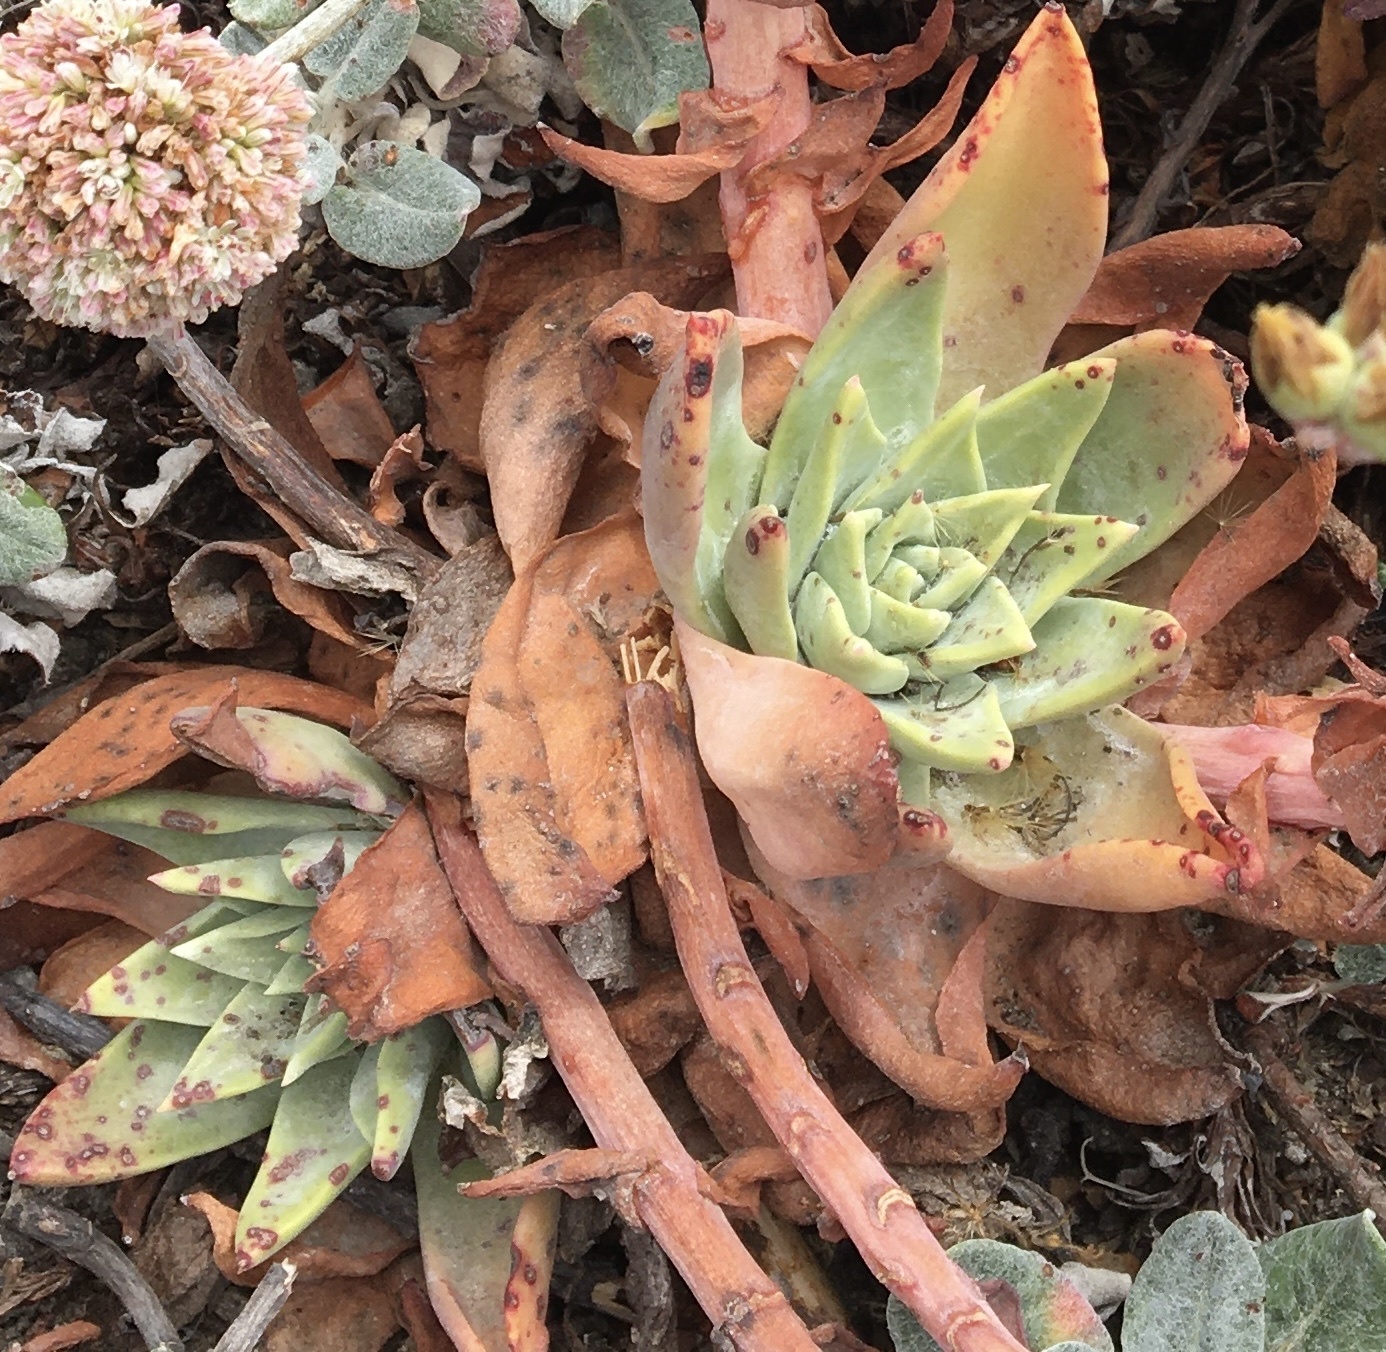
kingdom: Plantae
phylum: Tracheophyta
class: Magnoliopsida
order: Saxifragales
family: Crassulaceae
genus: Dudleya
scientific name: Dudleya caespitosa
